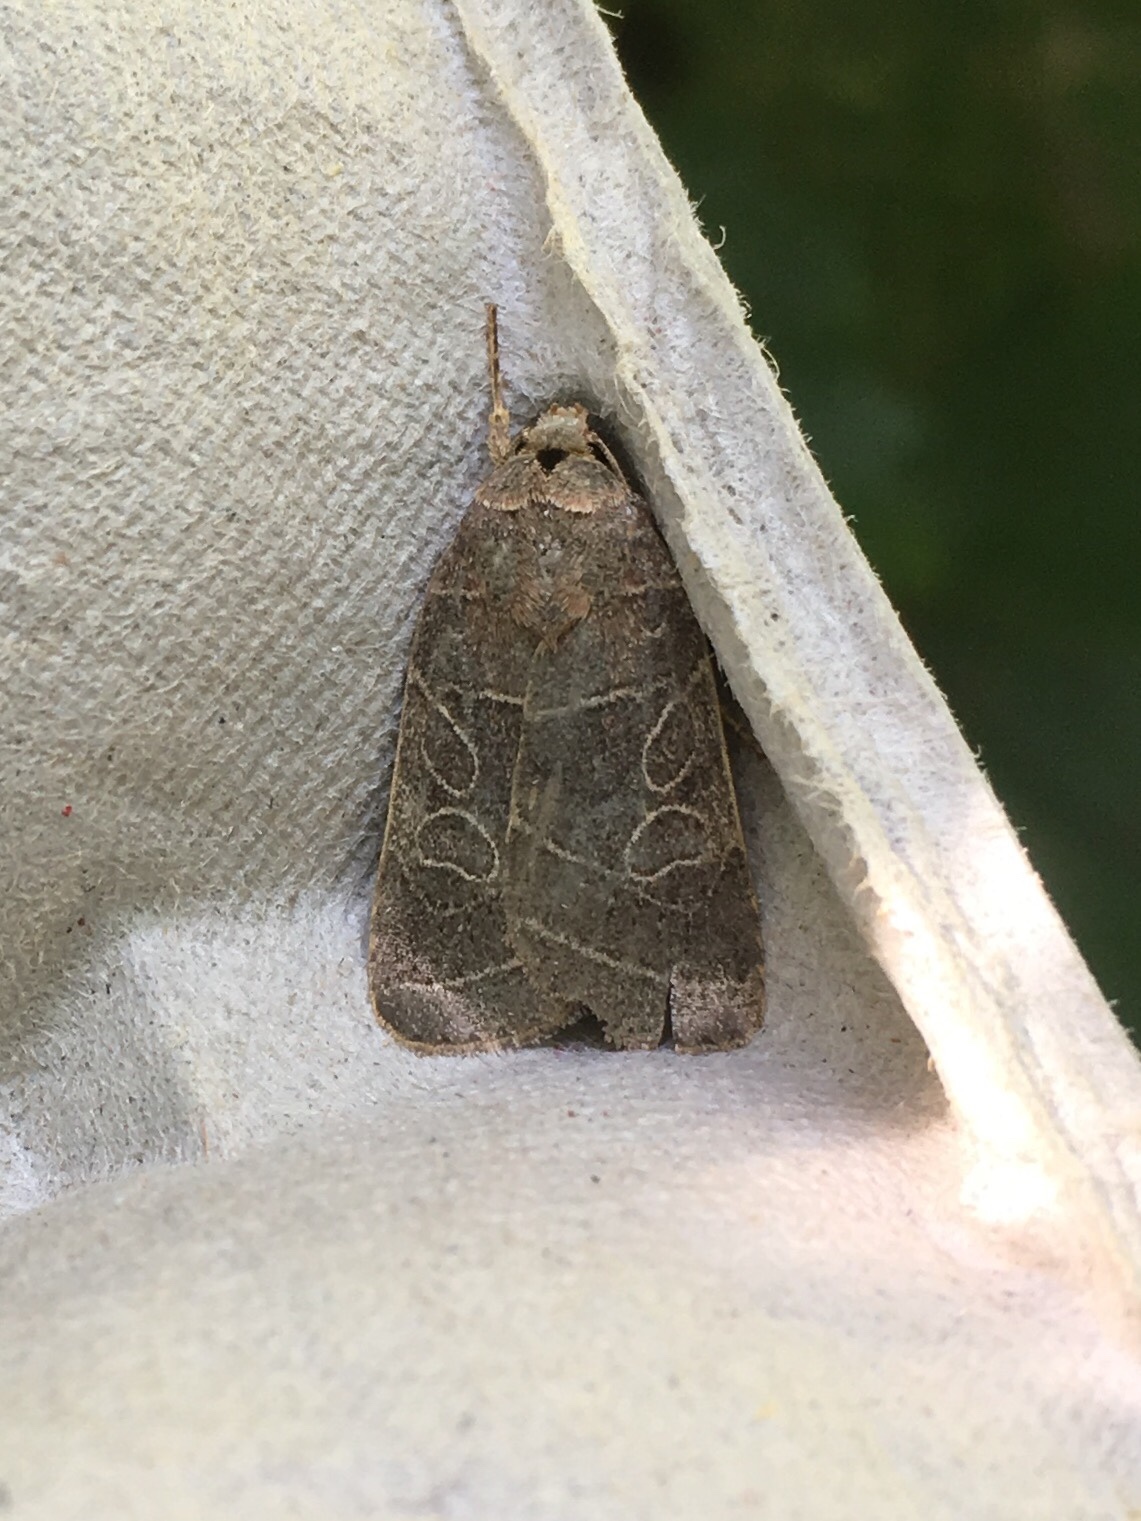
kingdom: Animalia
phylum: Arthropoda
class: Insecta
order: Lepidoptera
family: Noctuidae
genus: Orthodes
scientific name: Orthodes majuscula
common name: Rustic quaker
